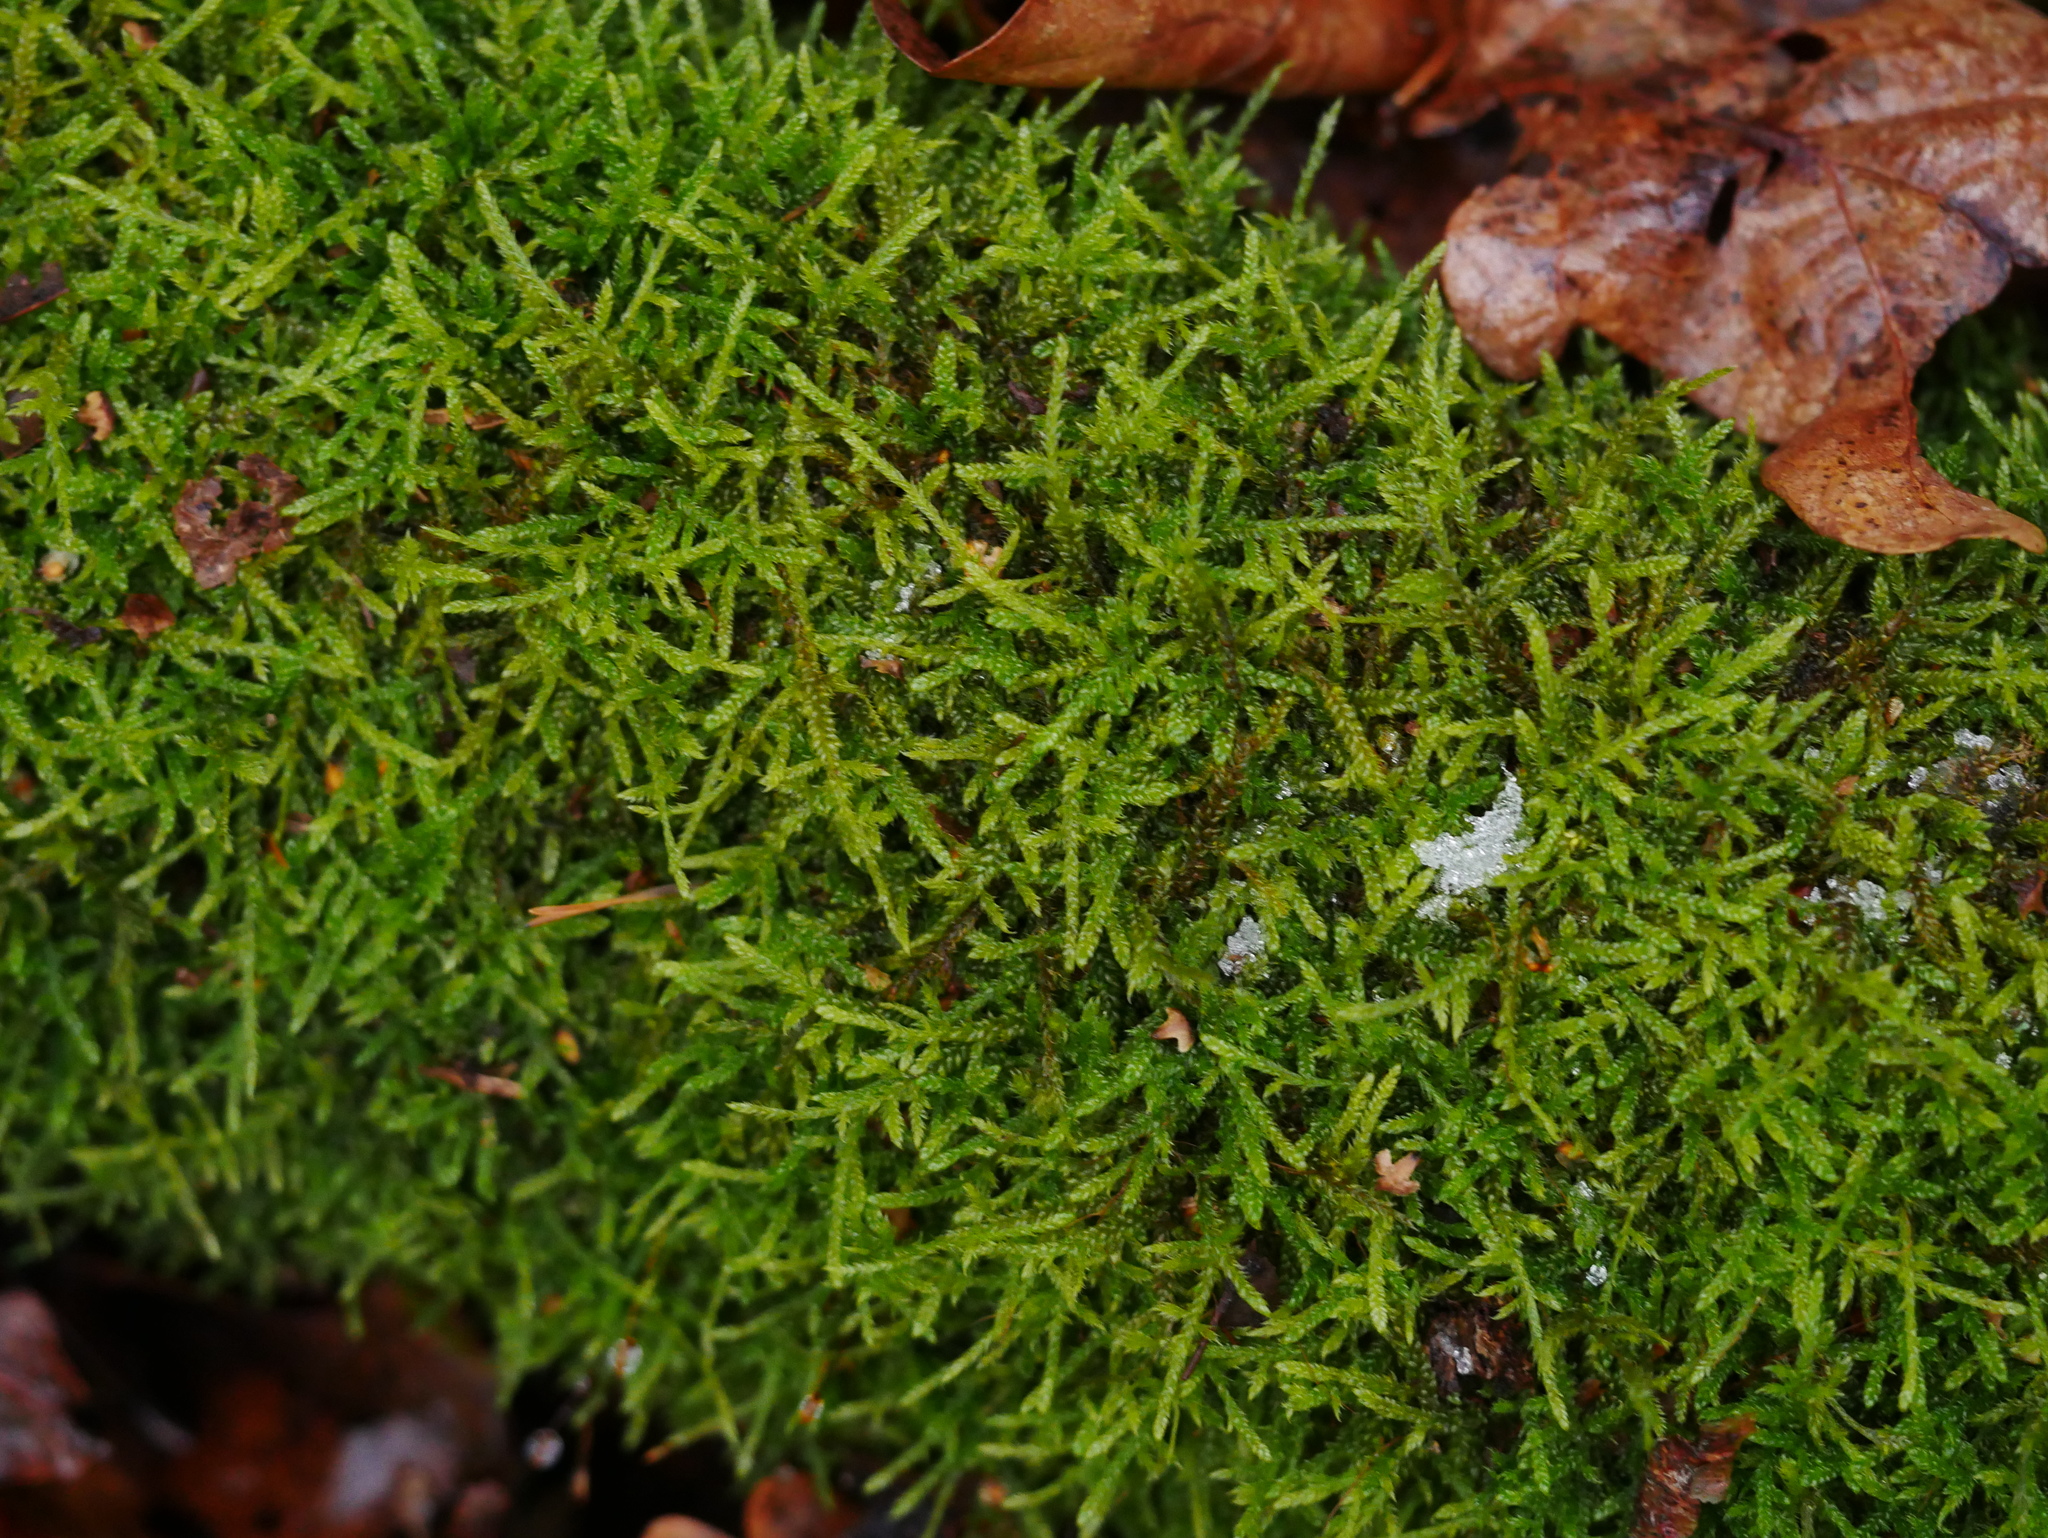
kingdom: Plantae
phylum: Bryophyta
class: Bryopsida
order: Hypnales
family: Hypnaceae
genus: Hypnum
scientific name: Hypnum cupressiforme
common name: Cypress-leaved plait-moss
